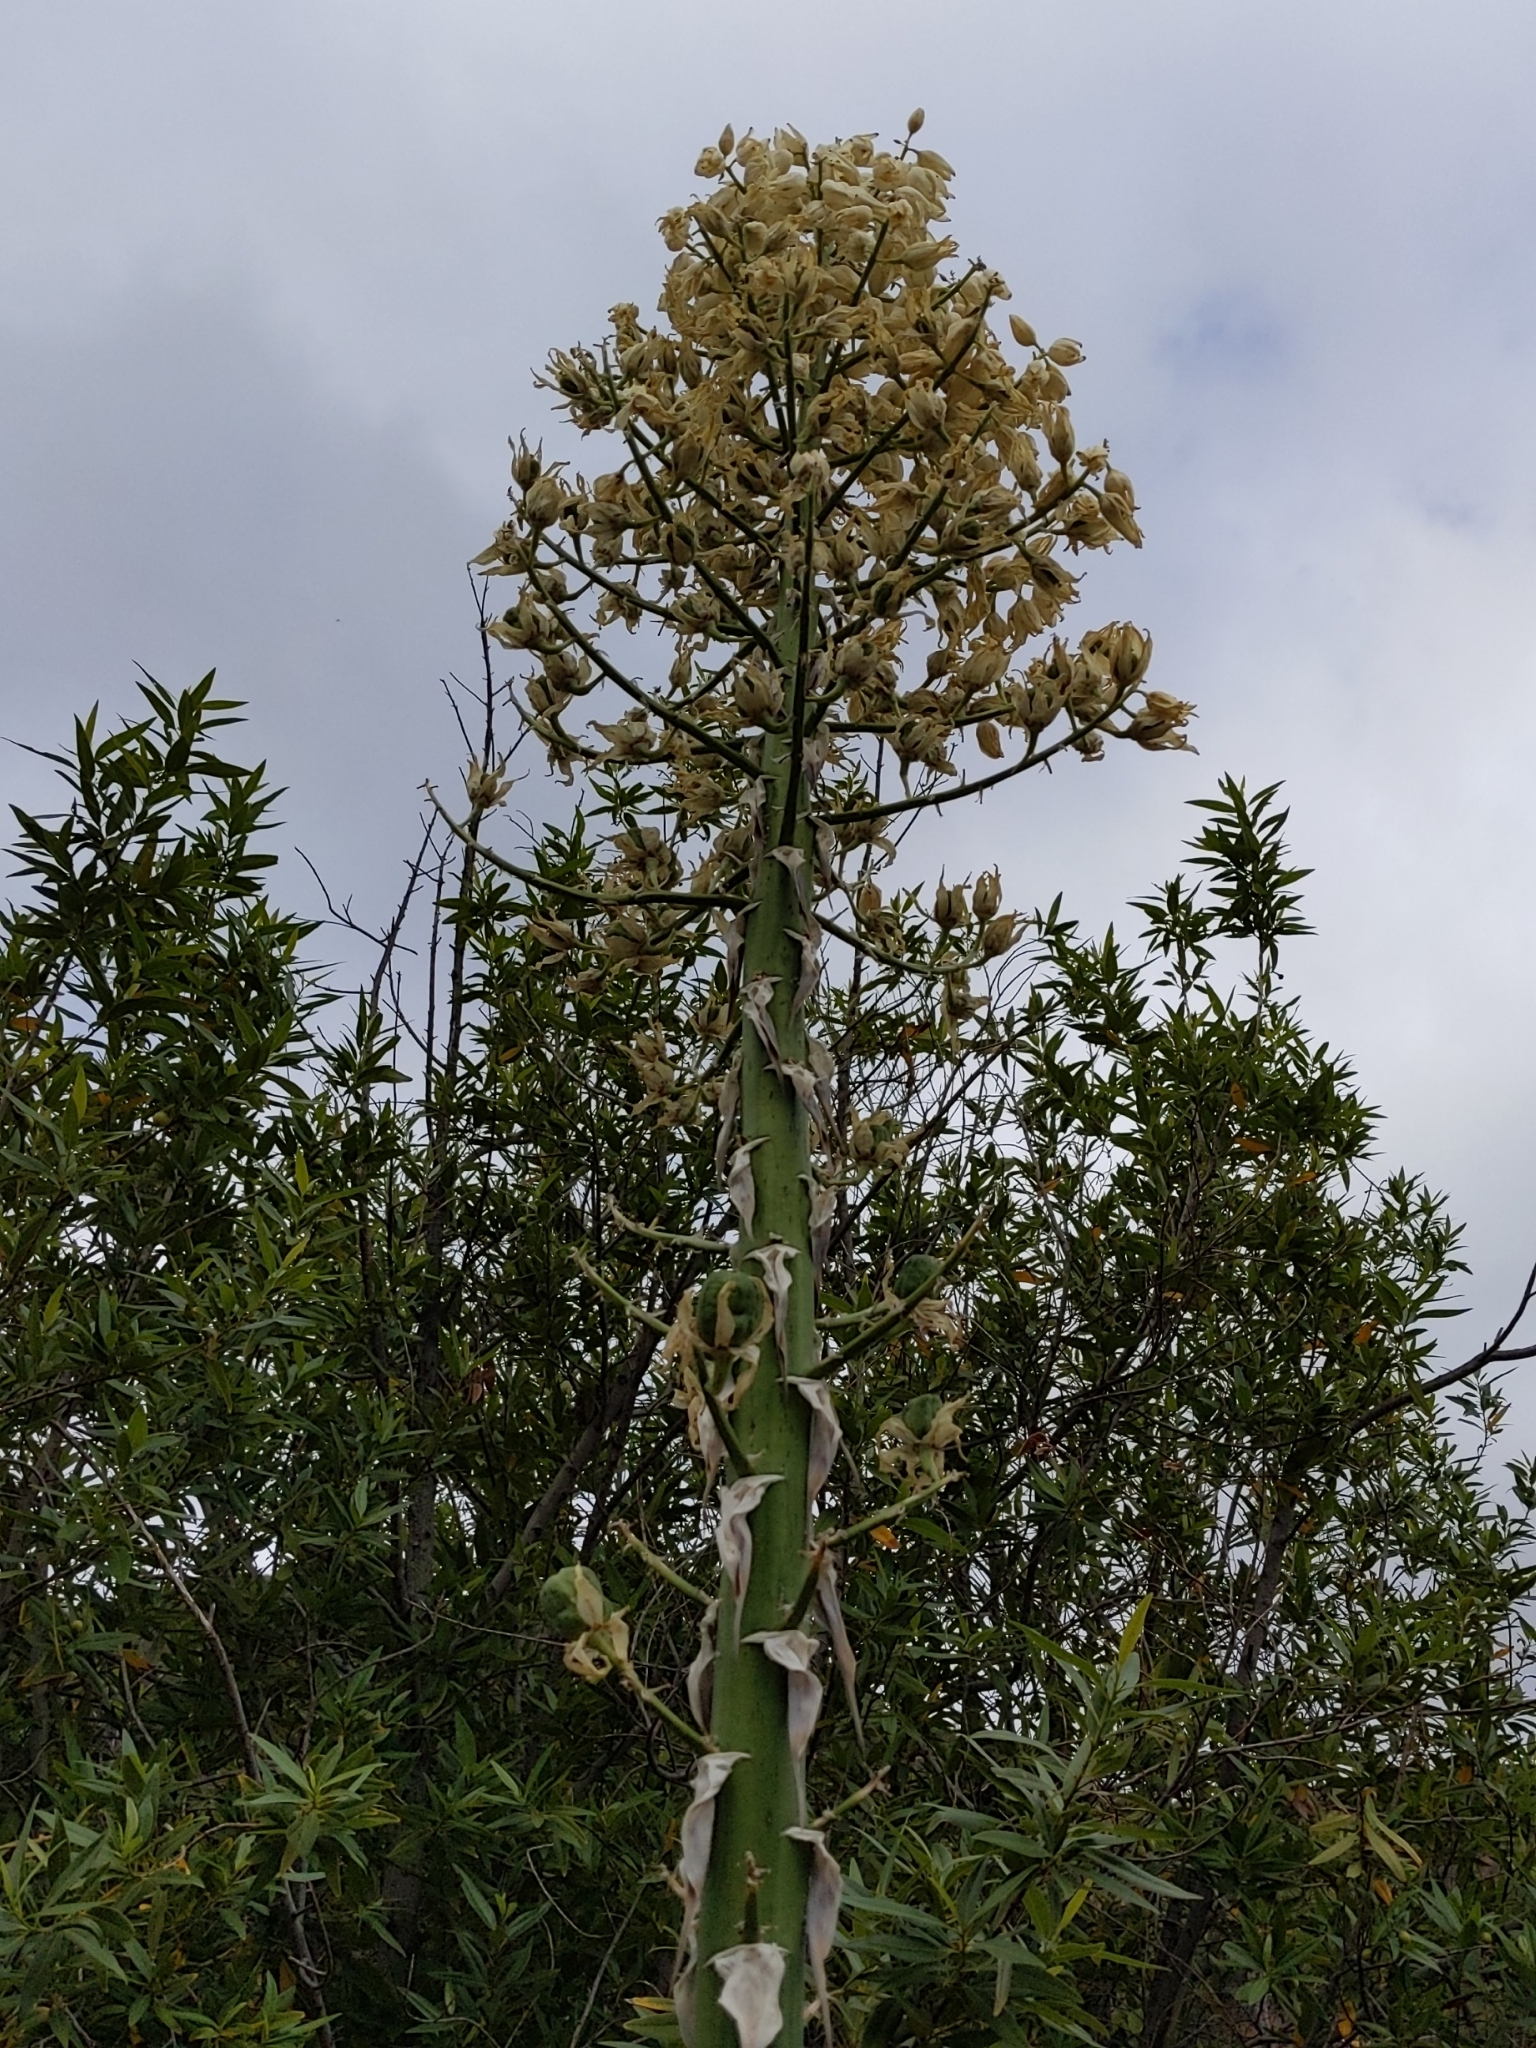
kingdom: Plantae
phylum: Tracheophyta
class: Liliopsida
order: Asparagales
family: Asparagaceae
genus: Hesperoyucca
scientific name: Hesperoyucca whipplei
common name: Our lord's-candle
